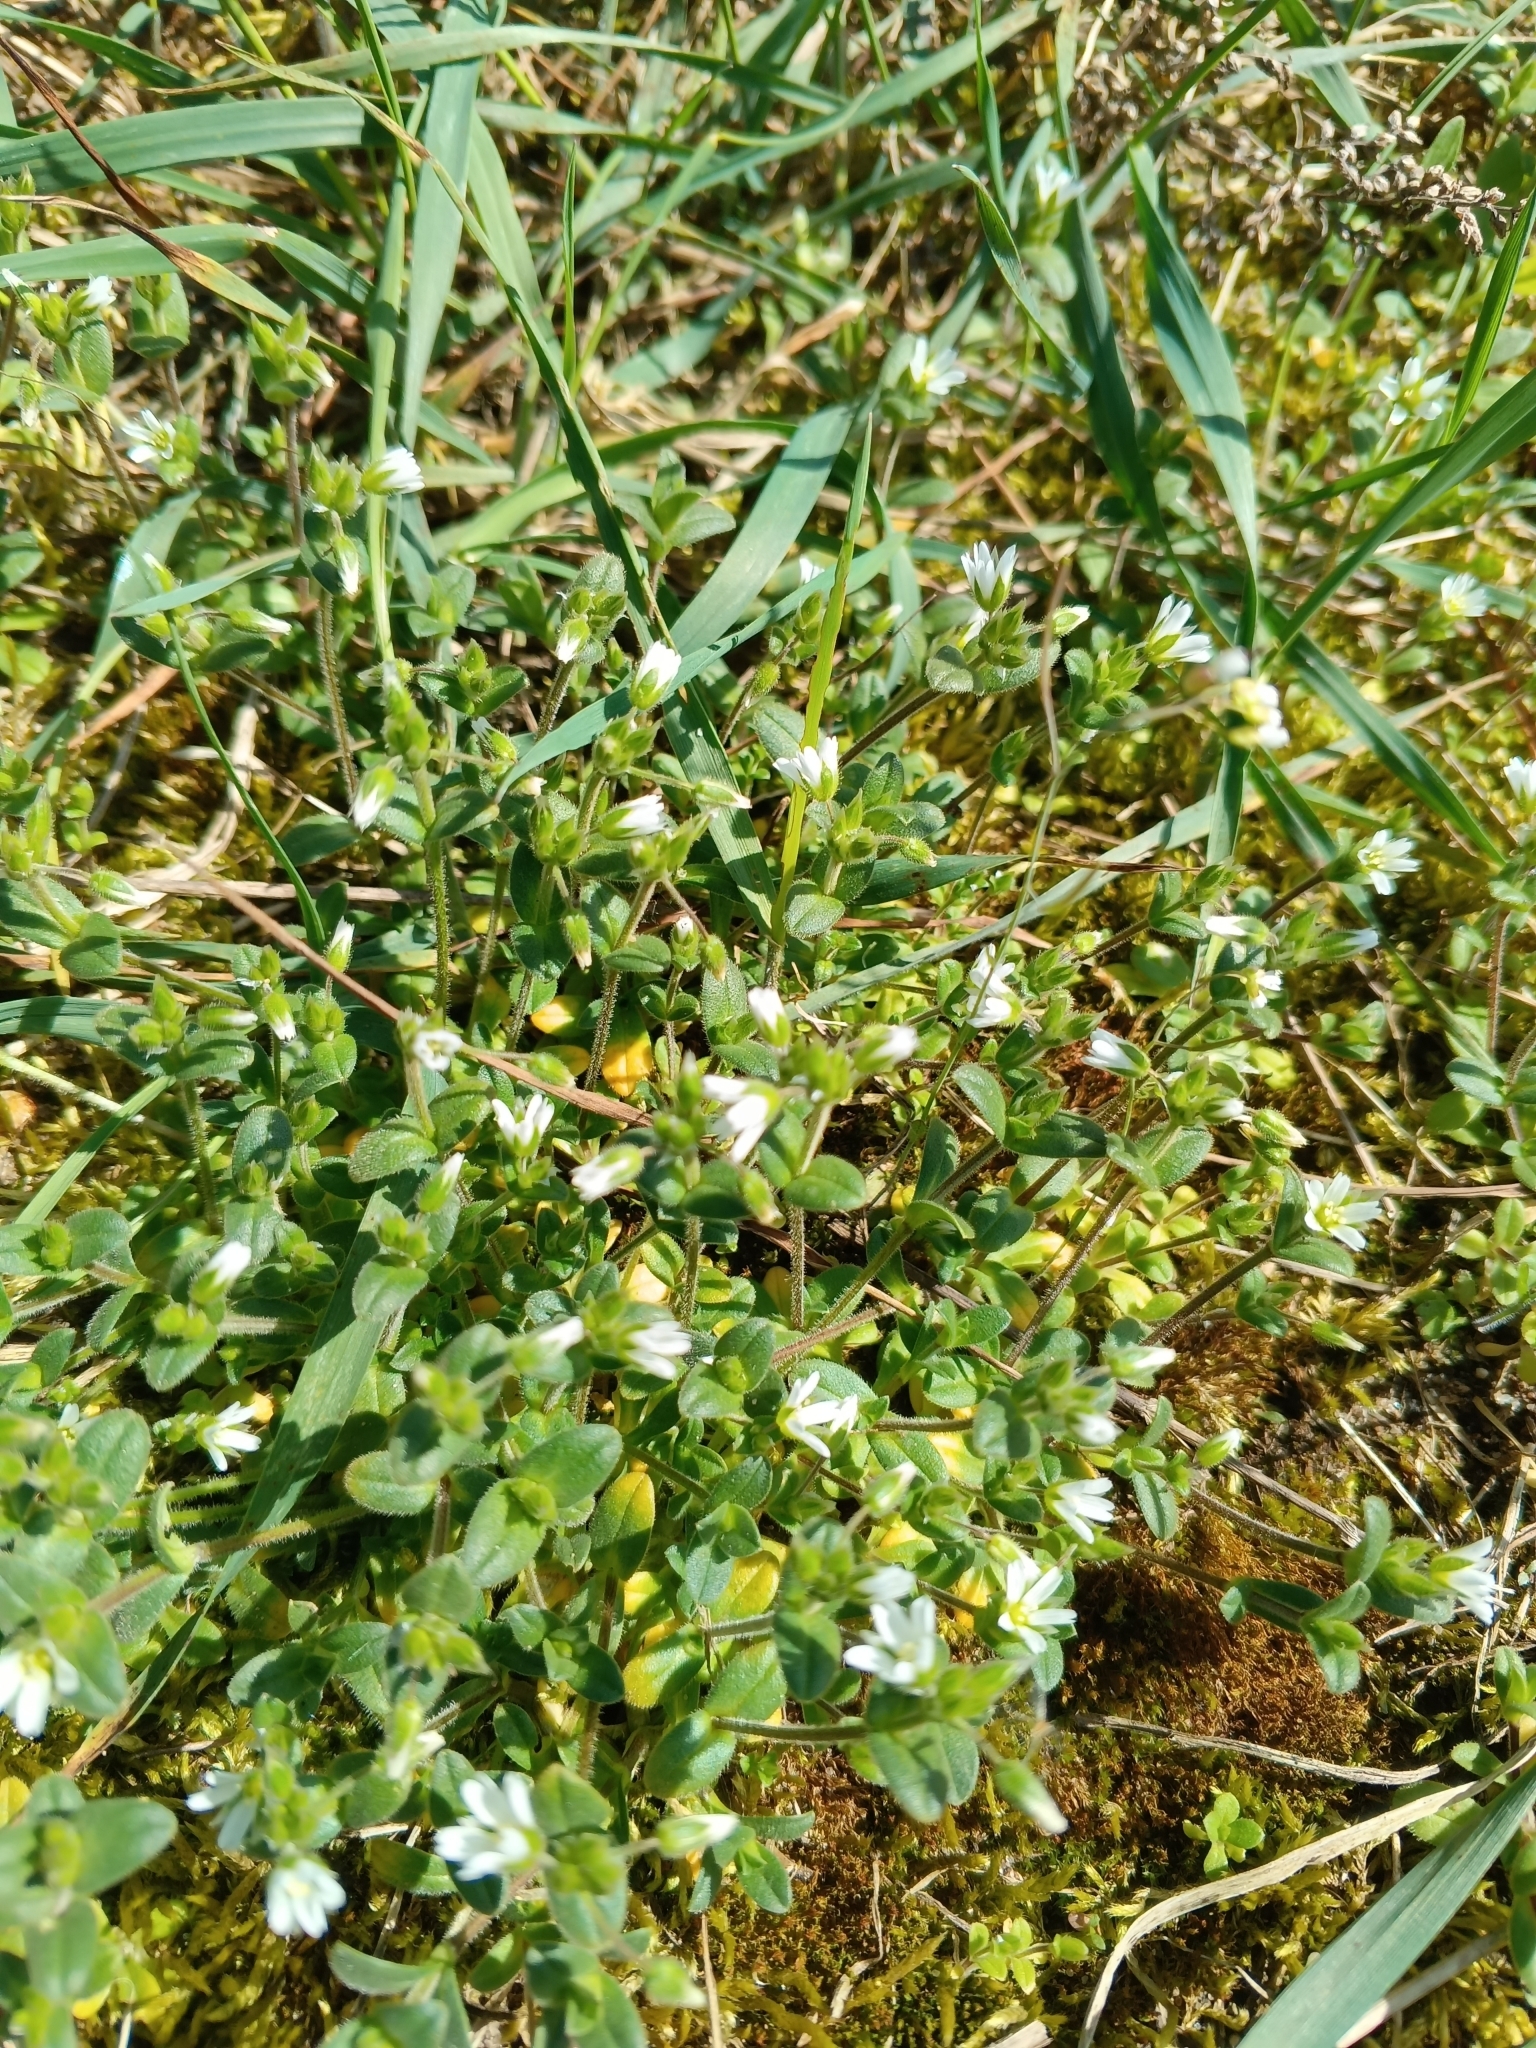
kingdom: Plantae
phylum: Tracheophyta
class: Magnoliopsida
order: Caryophyllales
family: Caryophyllaceae
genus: Cerastium
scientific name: Cerastium holosteoides
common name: Big chickweed
